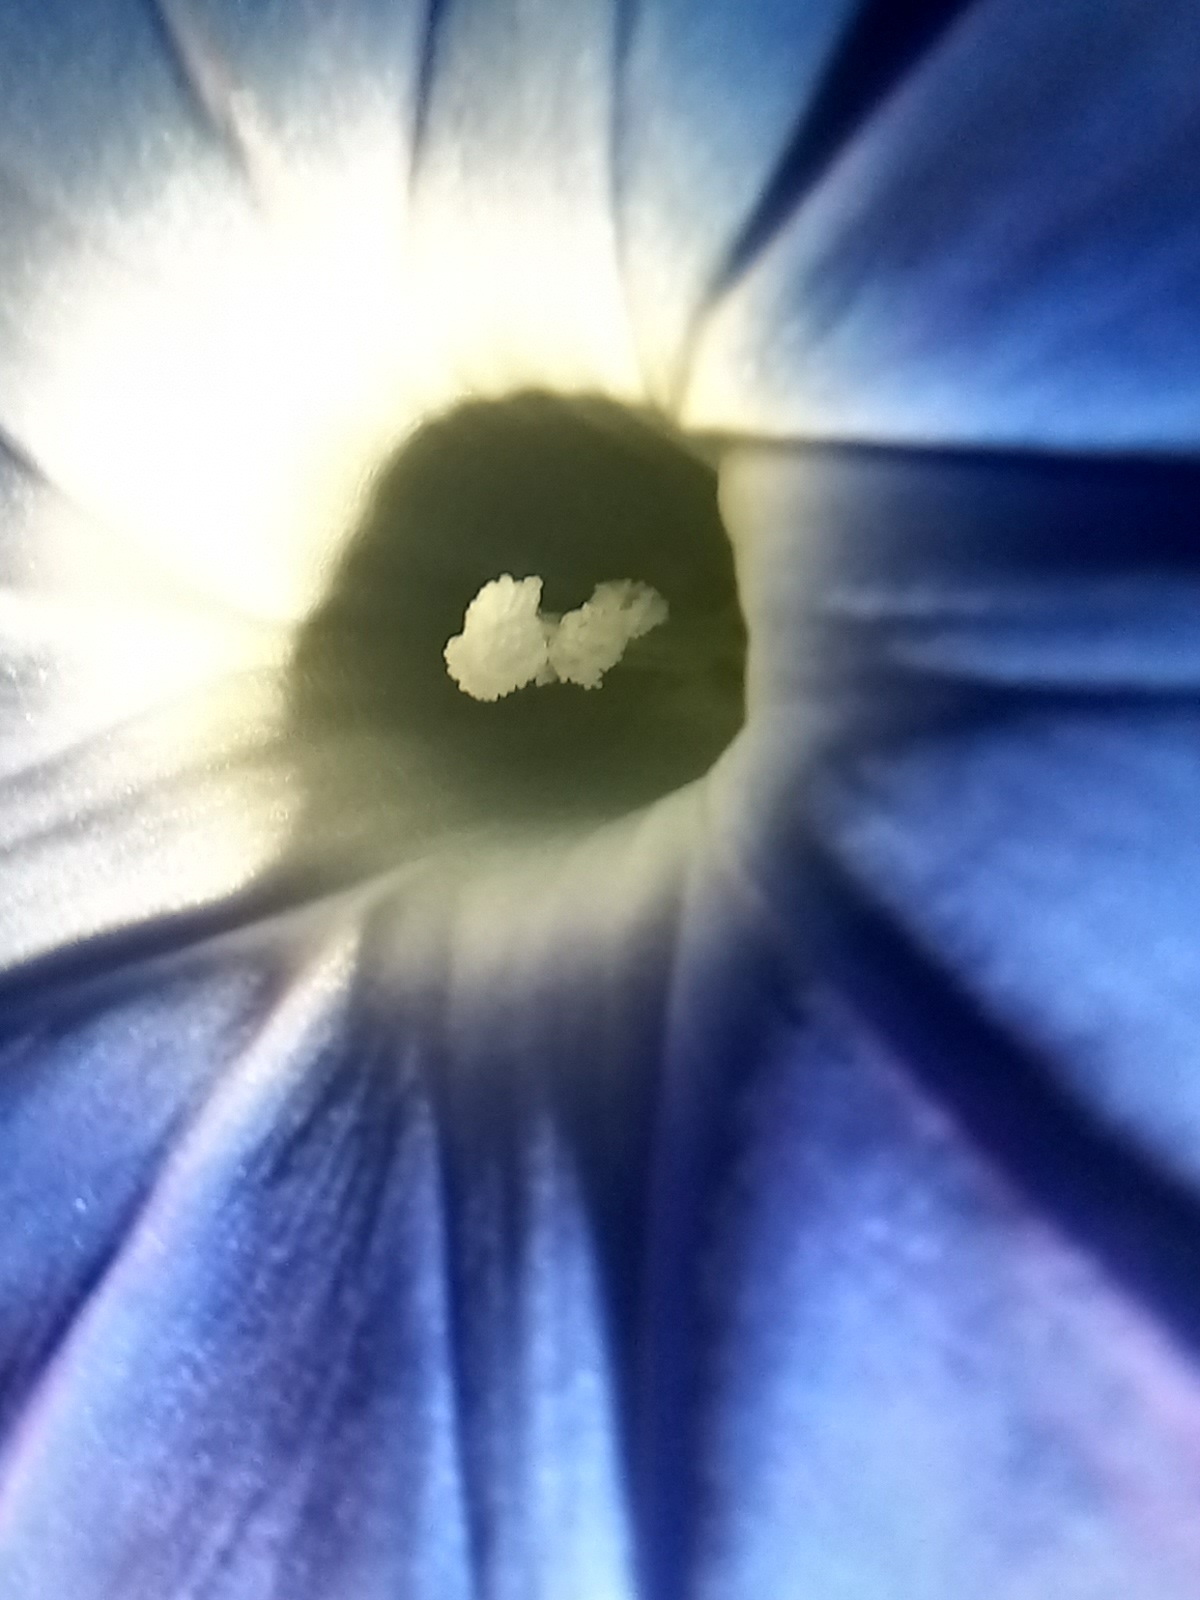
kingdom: Plantae
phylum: Tracheophyta
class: Magnoliopsida
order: Solanales
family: Convolvulaceae
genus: Ipomoea
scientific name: Ipomoea indica
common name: Blue dawnflower
